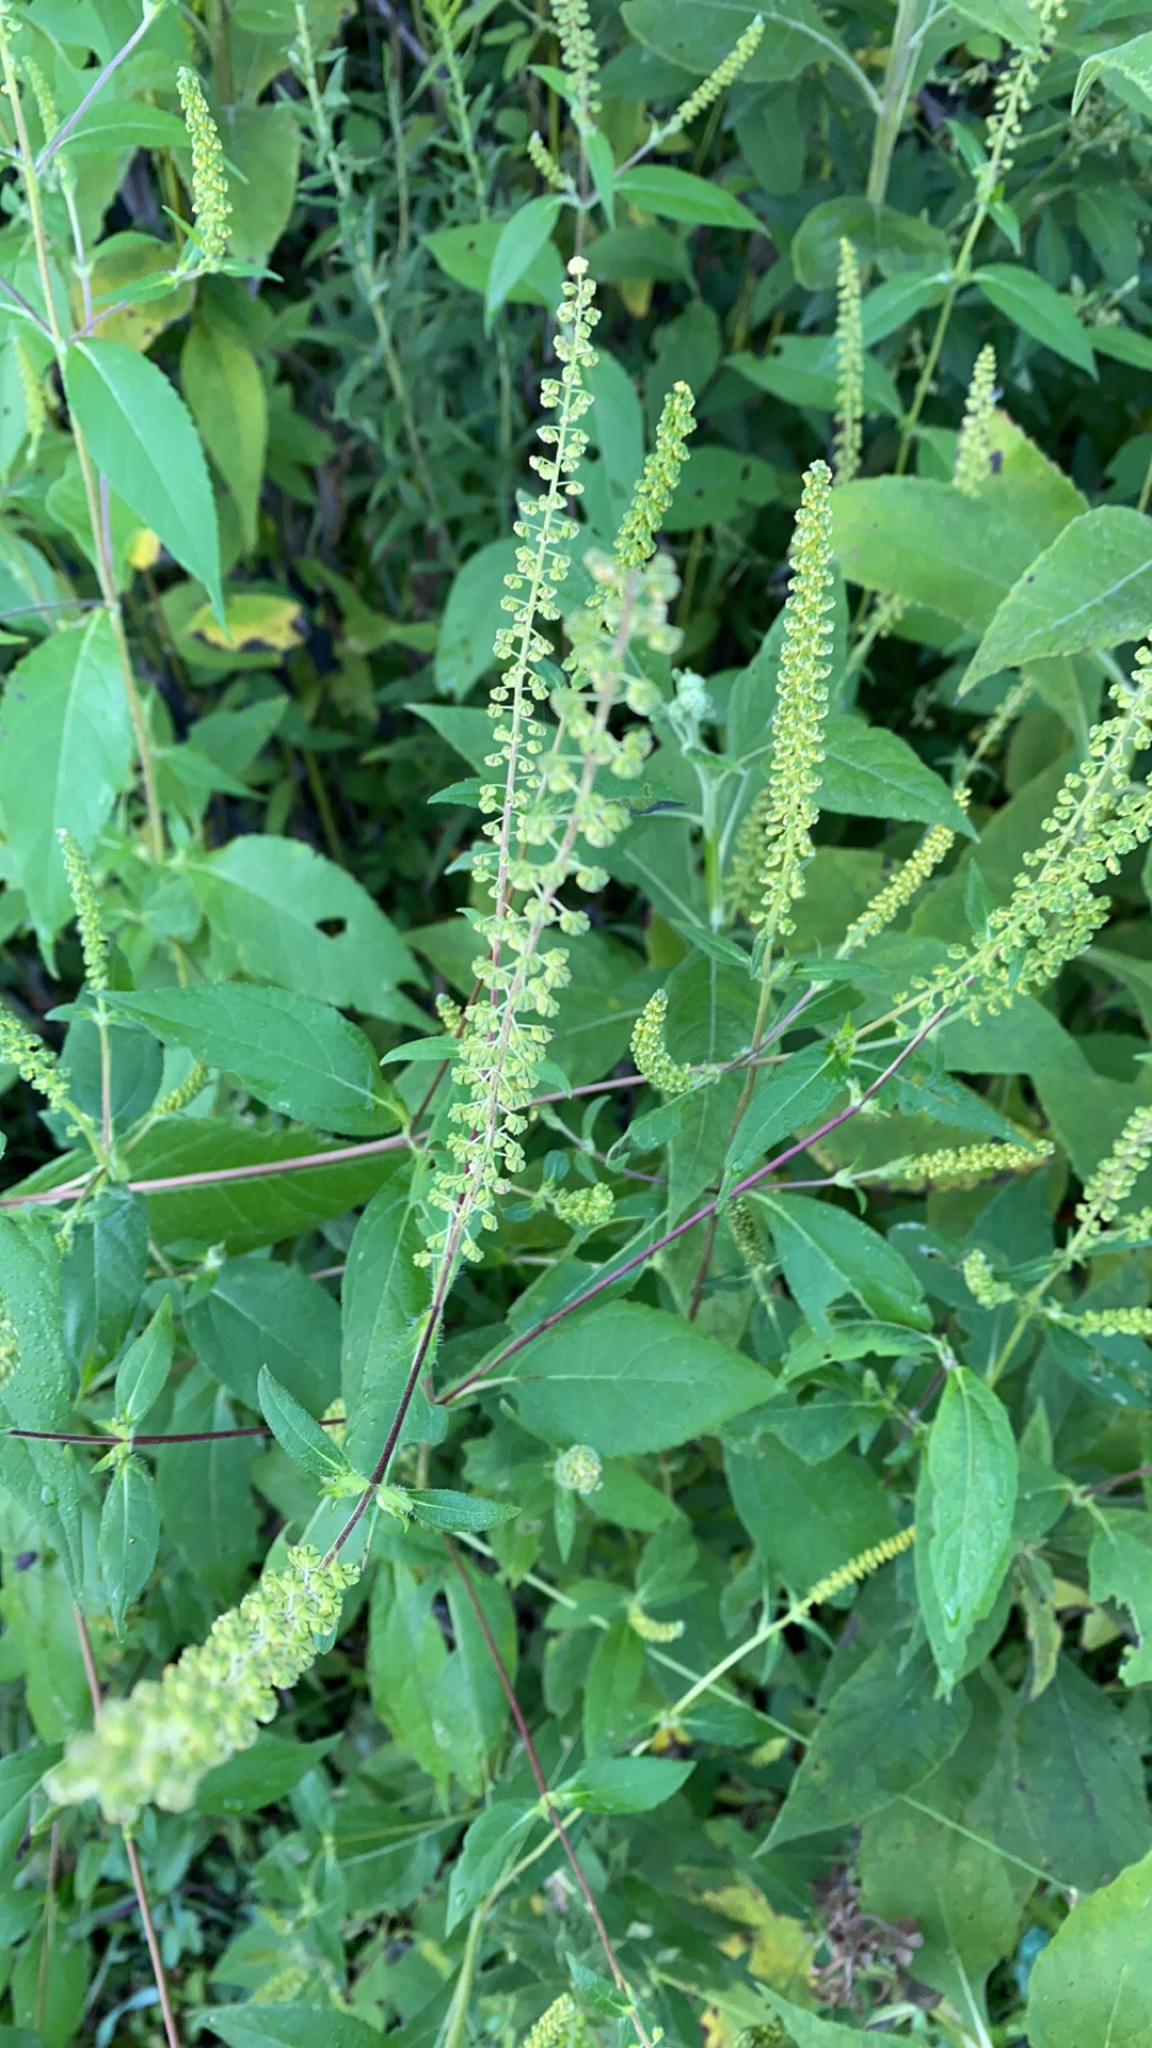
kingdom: Plantae
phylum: Tracheophyta
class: Magnoliopsida
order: Asterales
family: Asteraceae
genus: Ambrosia
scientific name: Ambrosia trifida
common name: Giant ragweed
